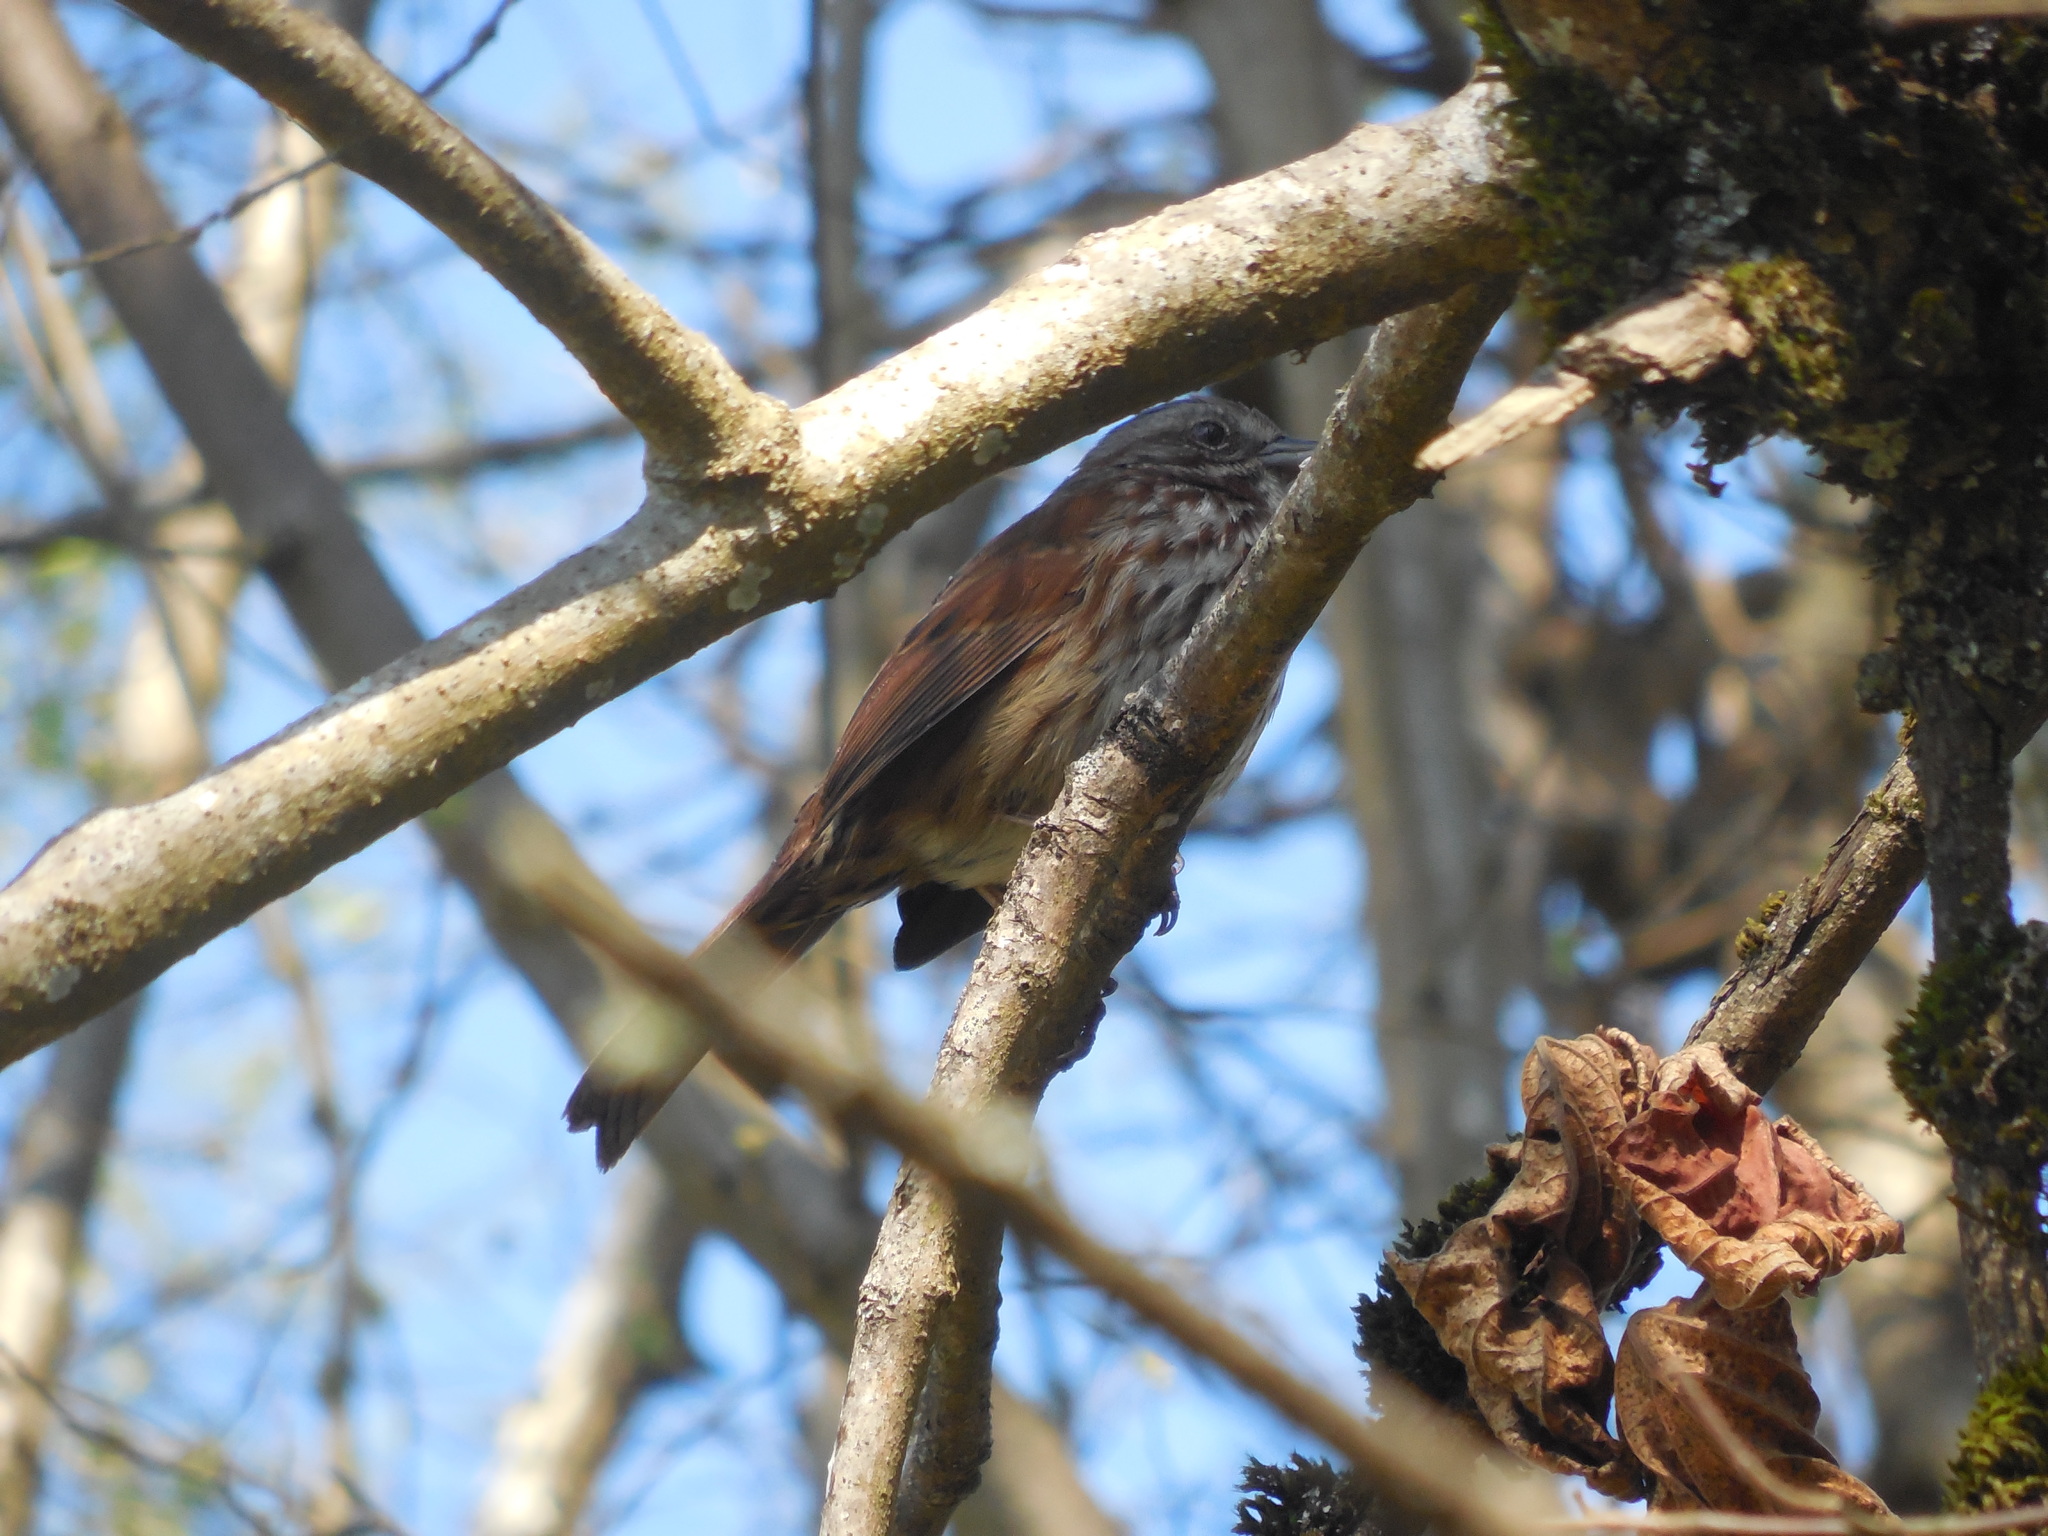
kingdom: Animalia
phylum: Chordata
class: Aves
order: Passeriformes
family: Passerellidae
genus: Melospiza
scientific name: Melospiza melodia
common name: Song sparrow
